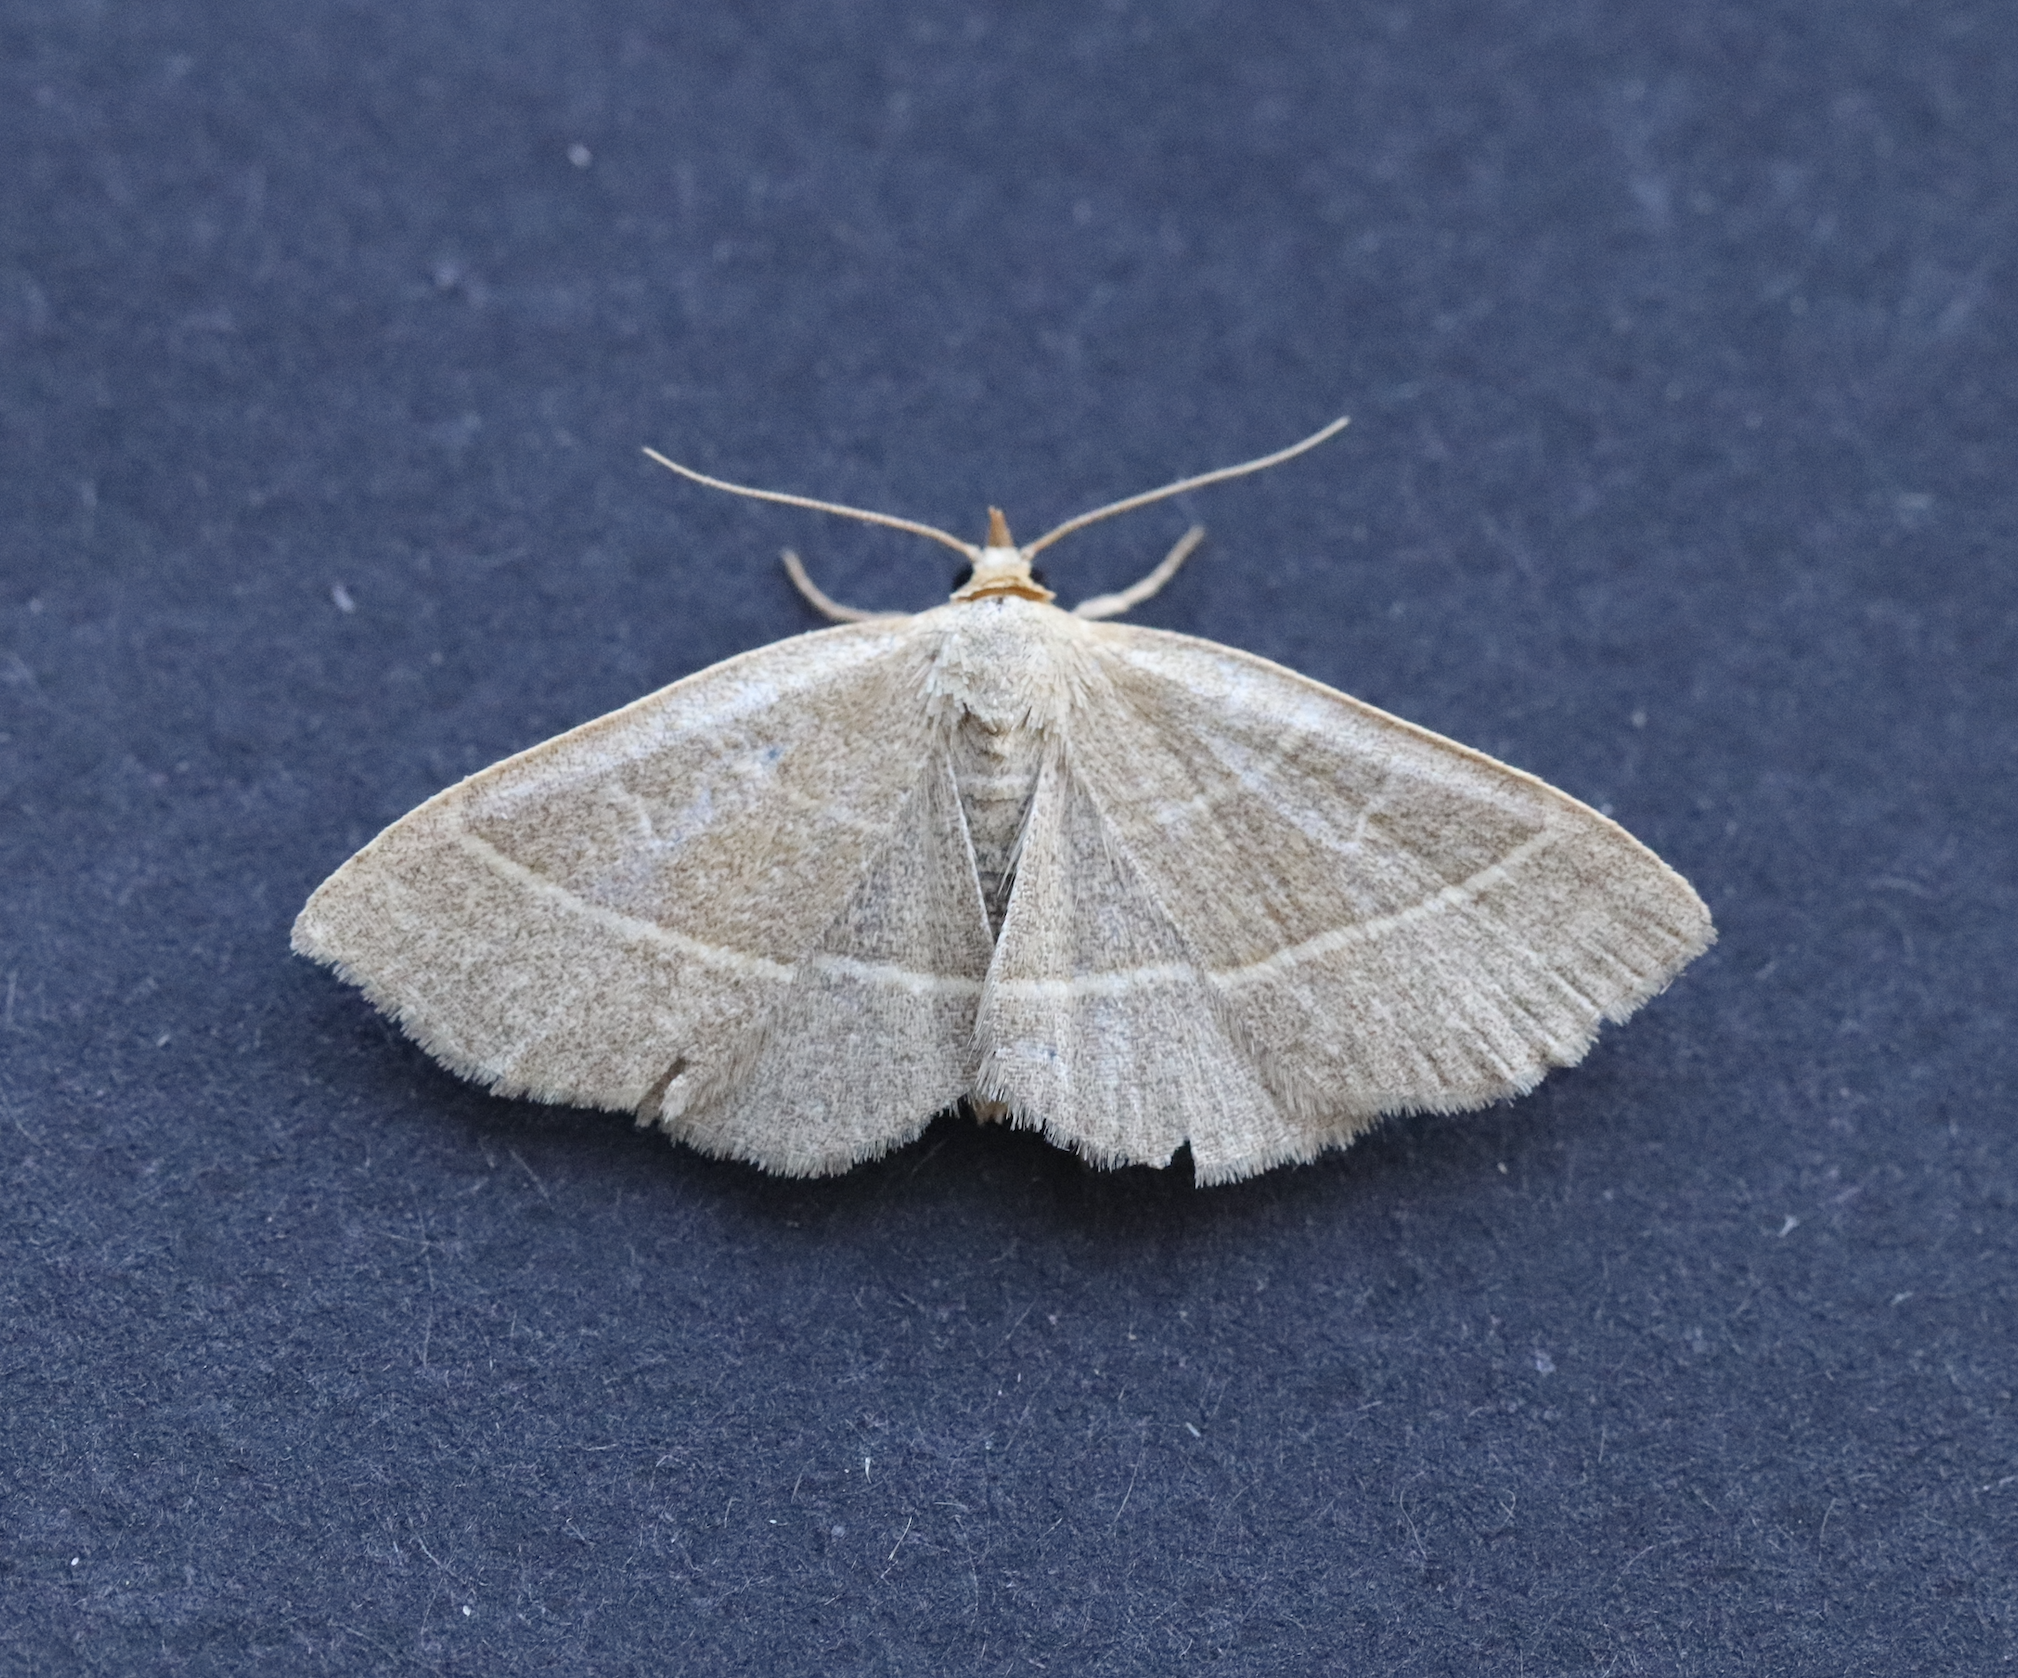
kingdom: Animalia
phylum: Arthropoda
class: Insecta
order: Lepidoptera
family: Erebidae
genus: Trisateles
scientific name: Trisateles emortualis
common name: Olive crescent
